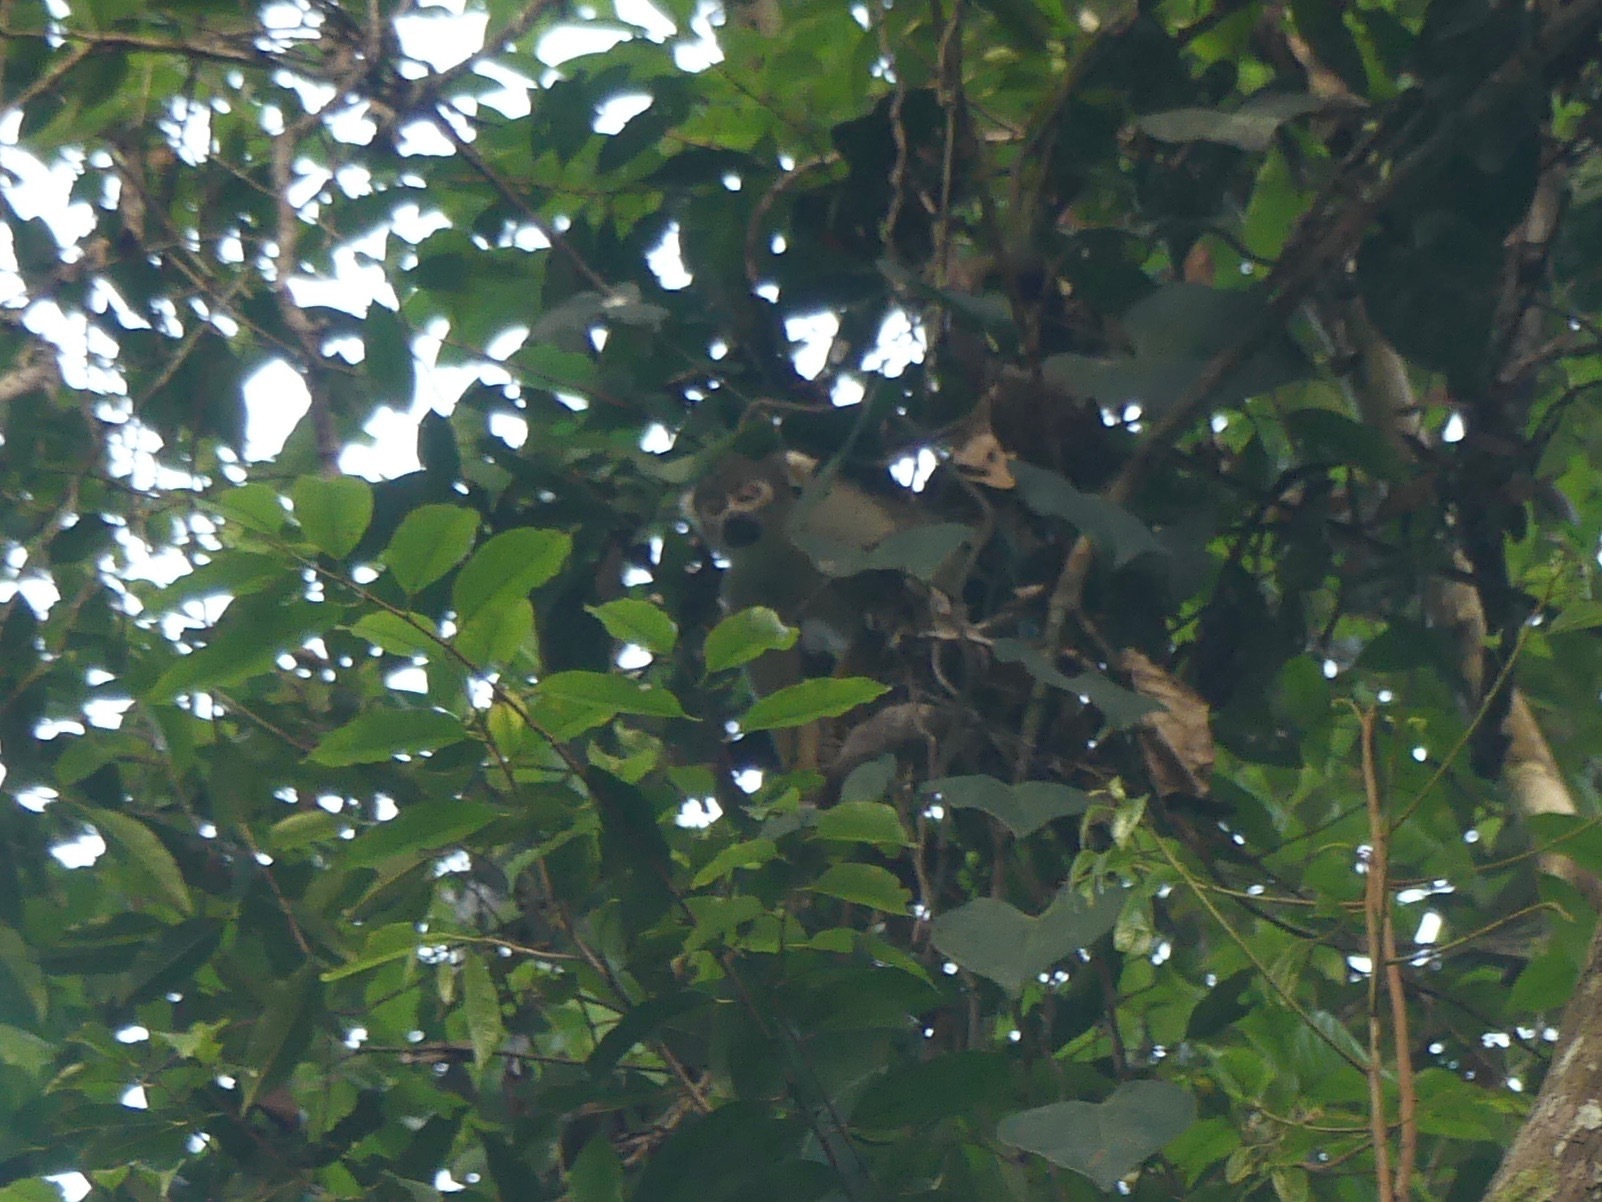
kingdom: Animalia
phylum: Chordata
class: Mammalia
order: Primates
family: Cebidae
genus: Saimiri
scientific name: Saimiri boliviensis
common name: Black-capped squirrel monkey
